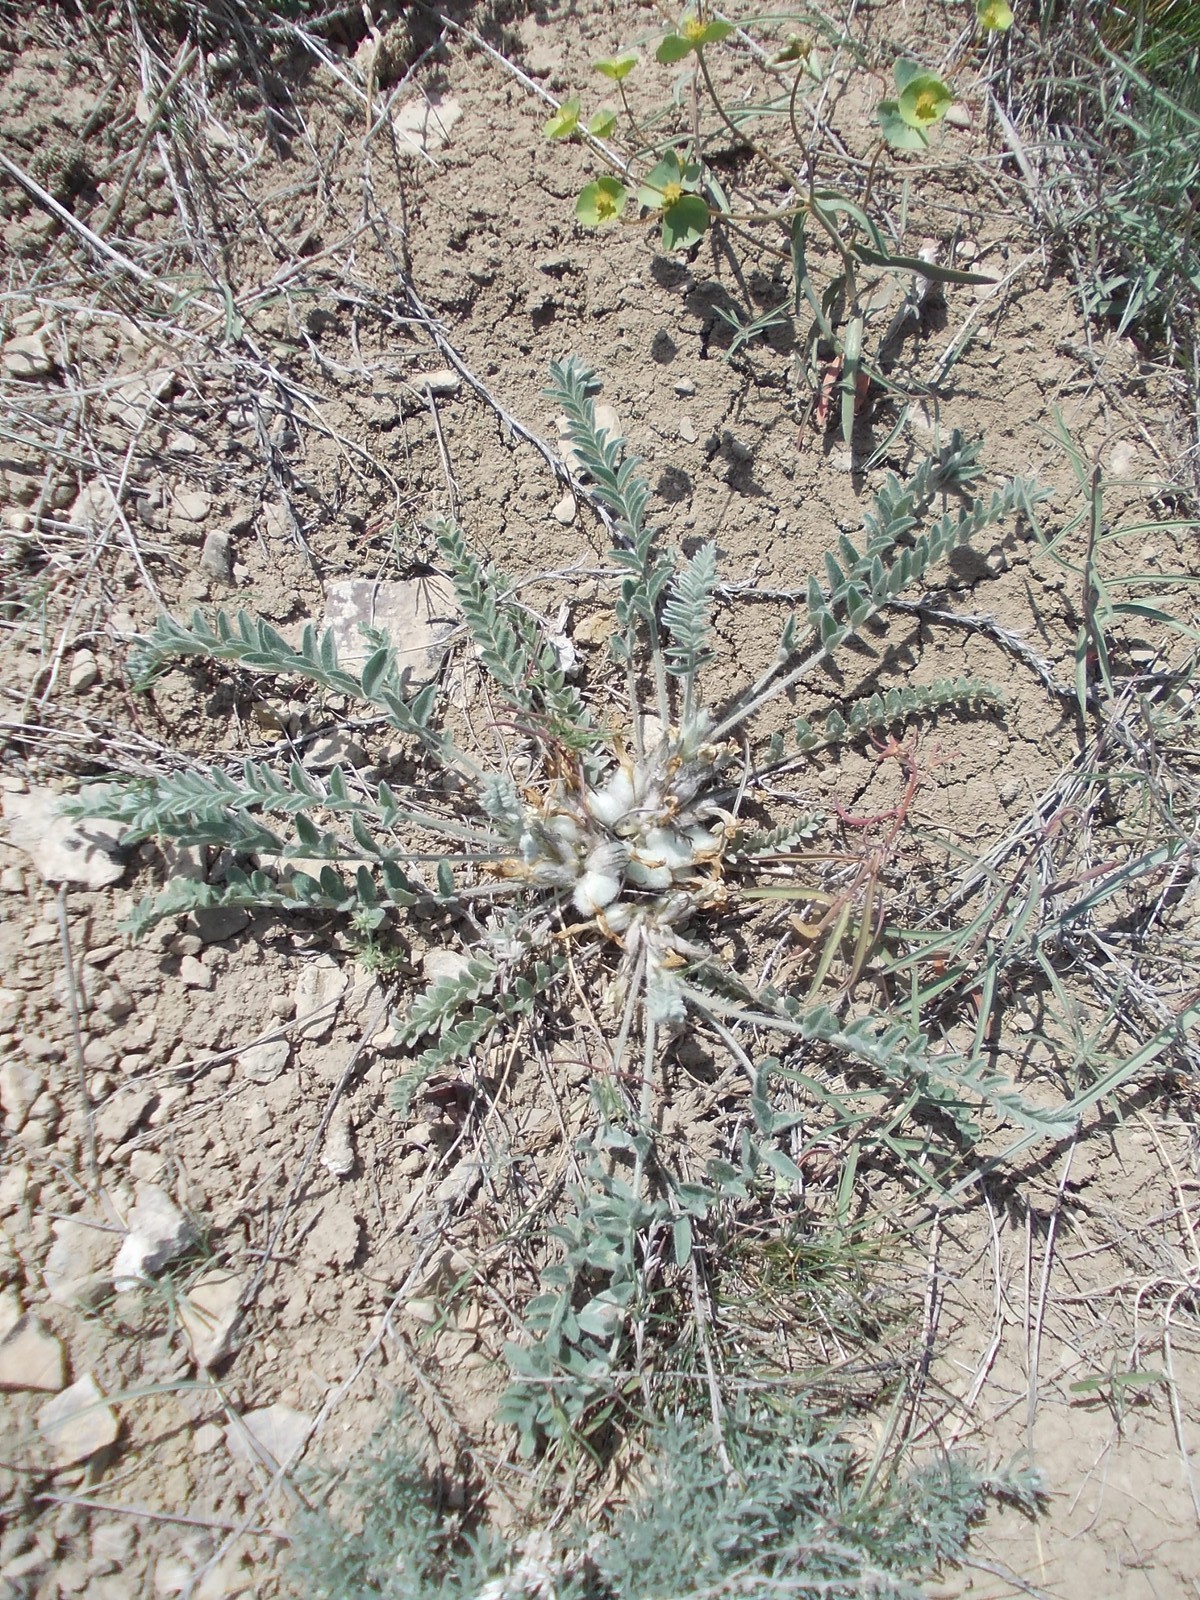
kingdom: Plantae
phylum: Tracheophyta
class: Magnoliopsida
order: Fabales
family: Fabaceae
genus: Astragalus
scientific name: Astragalus testiculatus
